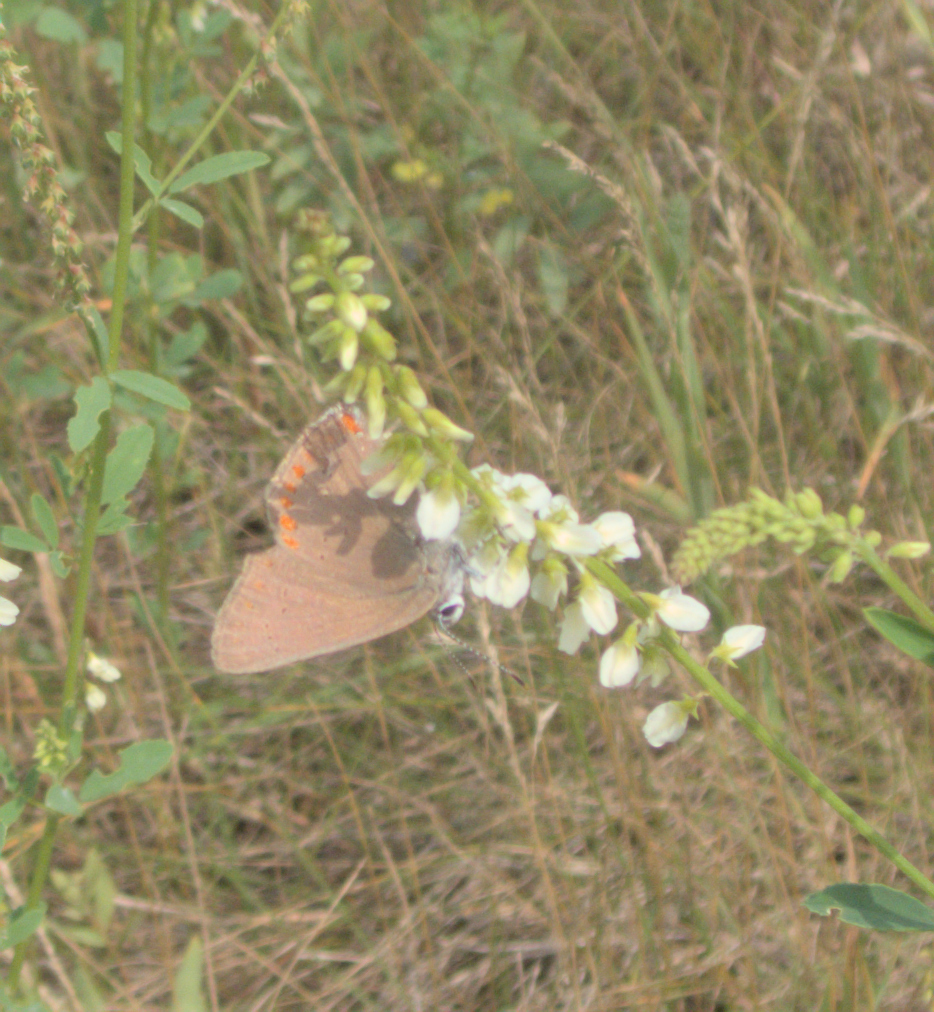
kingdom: Animalia
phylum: Arthropoda
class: Insecta
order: Lepidoptera
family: Lycaenidae
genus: Harkenclenus
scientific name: Harkenclenus titus
